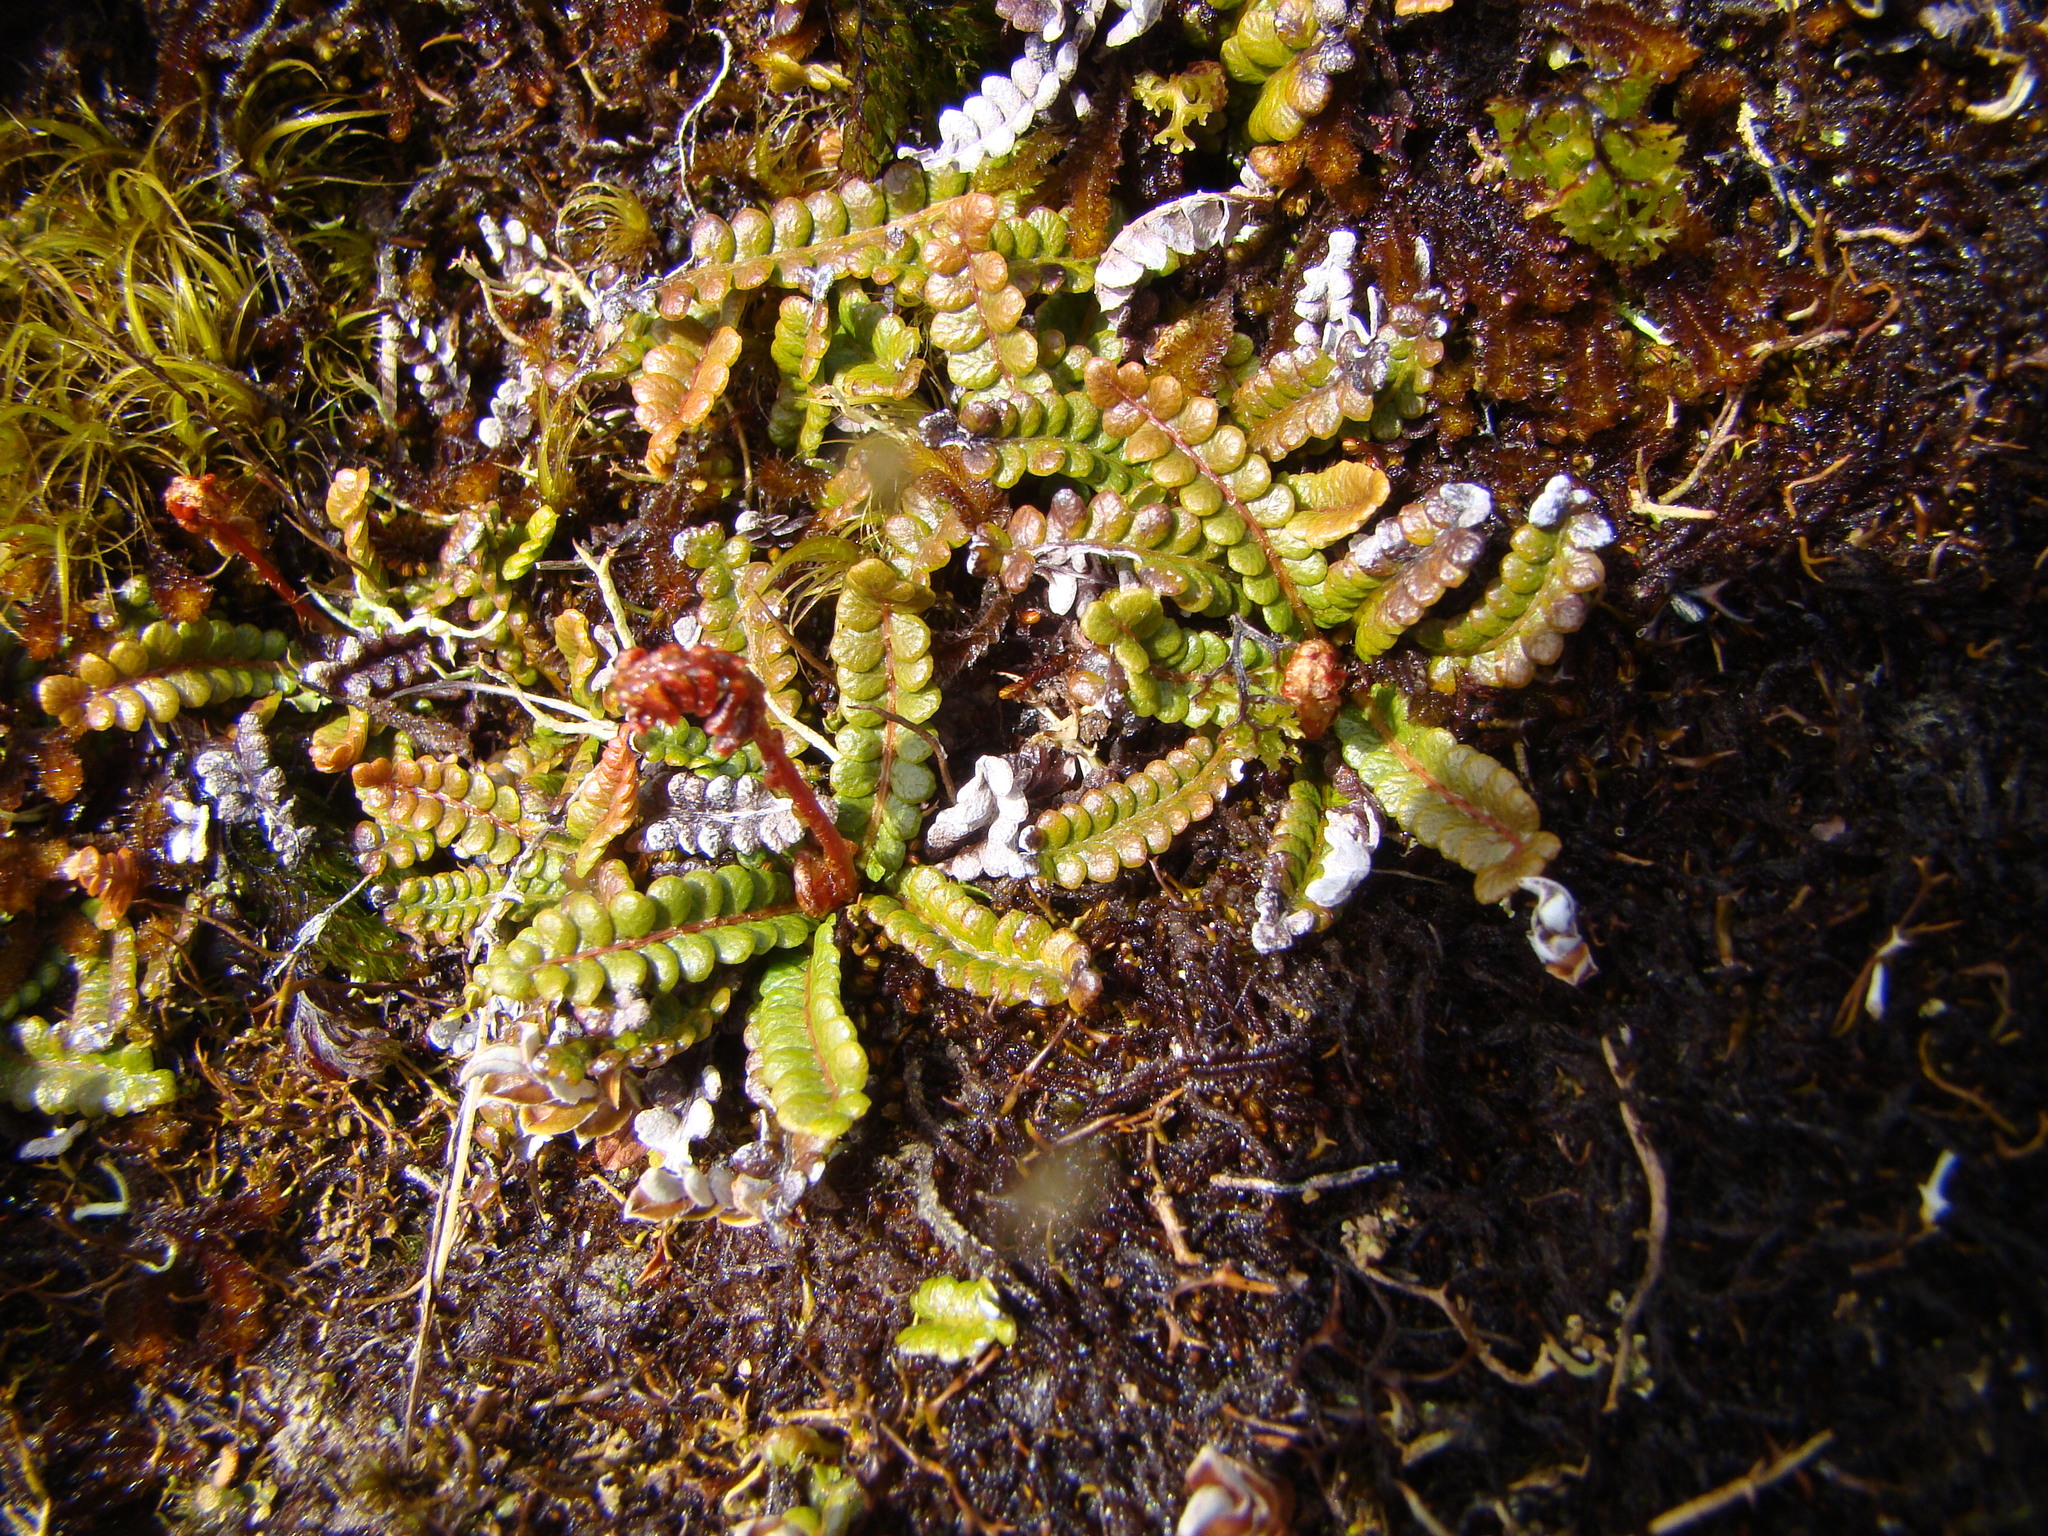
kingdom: Plantae
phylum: Tracheophyta
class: Polypodiopsida
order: Polypodiales
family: Blechnaceae
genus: Austroblechnum
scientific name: Austroblechnum penna-marina
